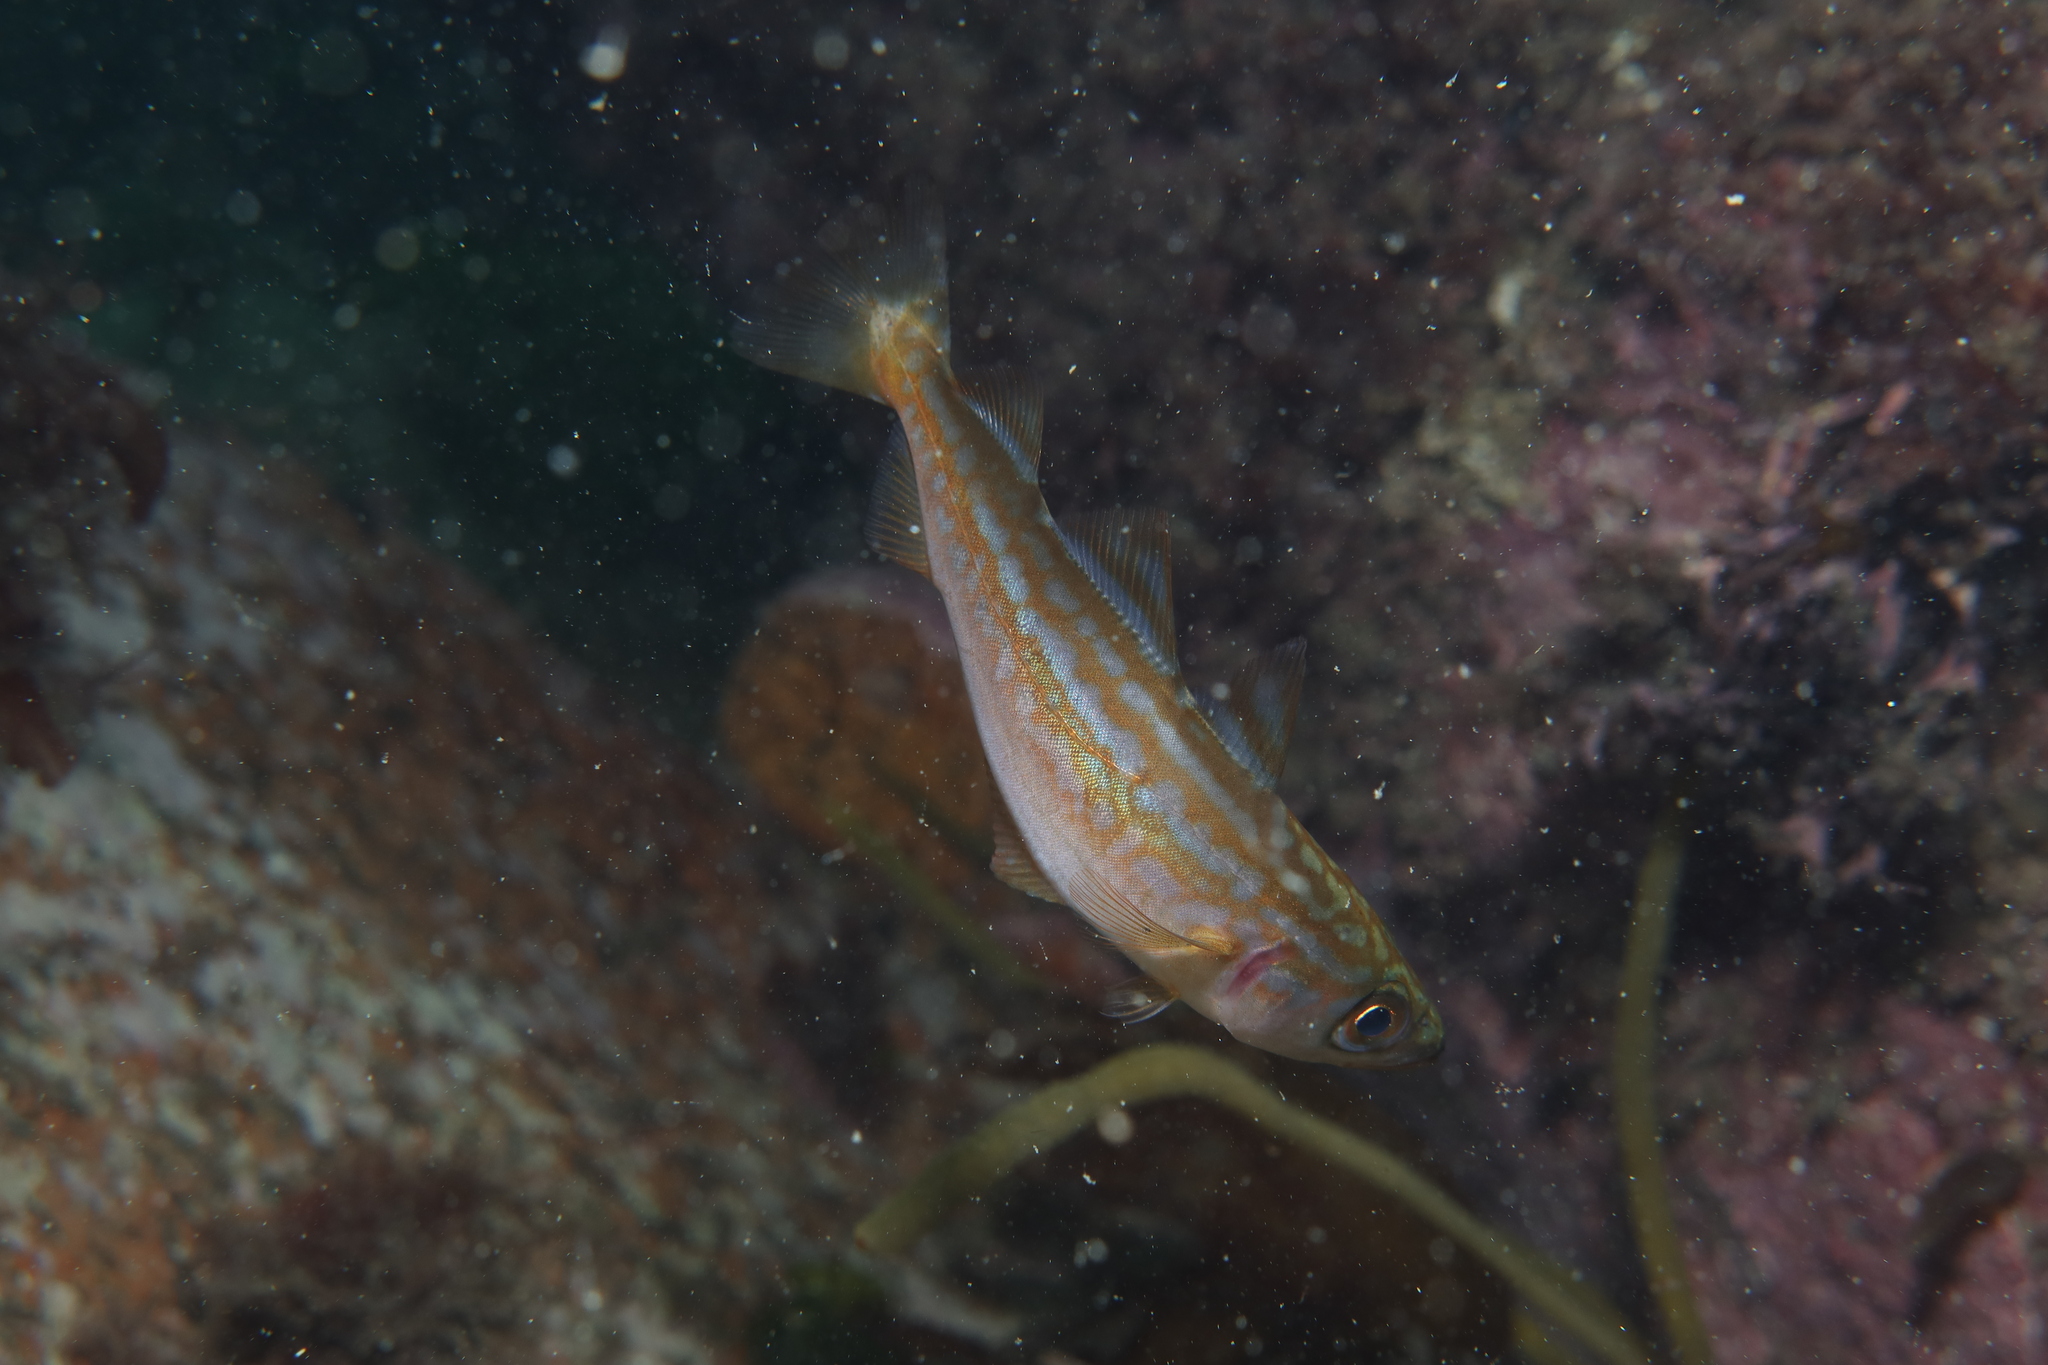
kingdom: Animalia
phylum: Chordata
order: Gadiformes
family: Gadidae
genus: Pollachius
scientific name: Pollachius pollachius
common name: Pollack
